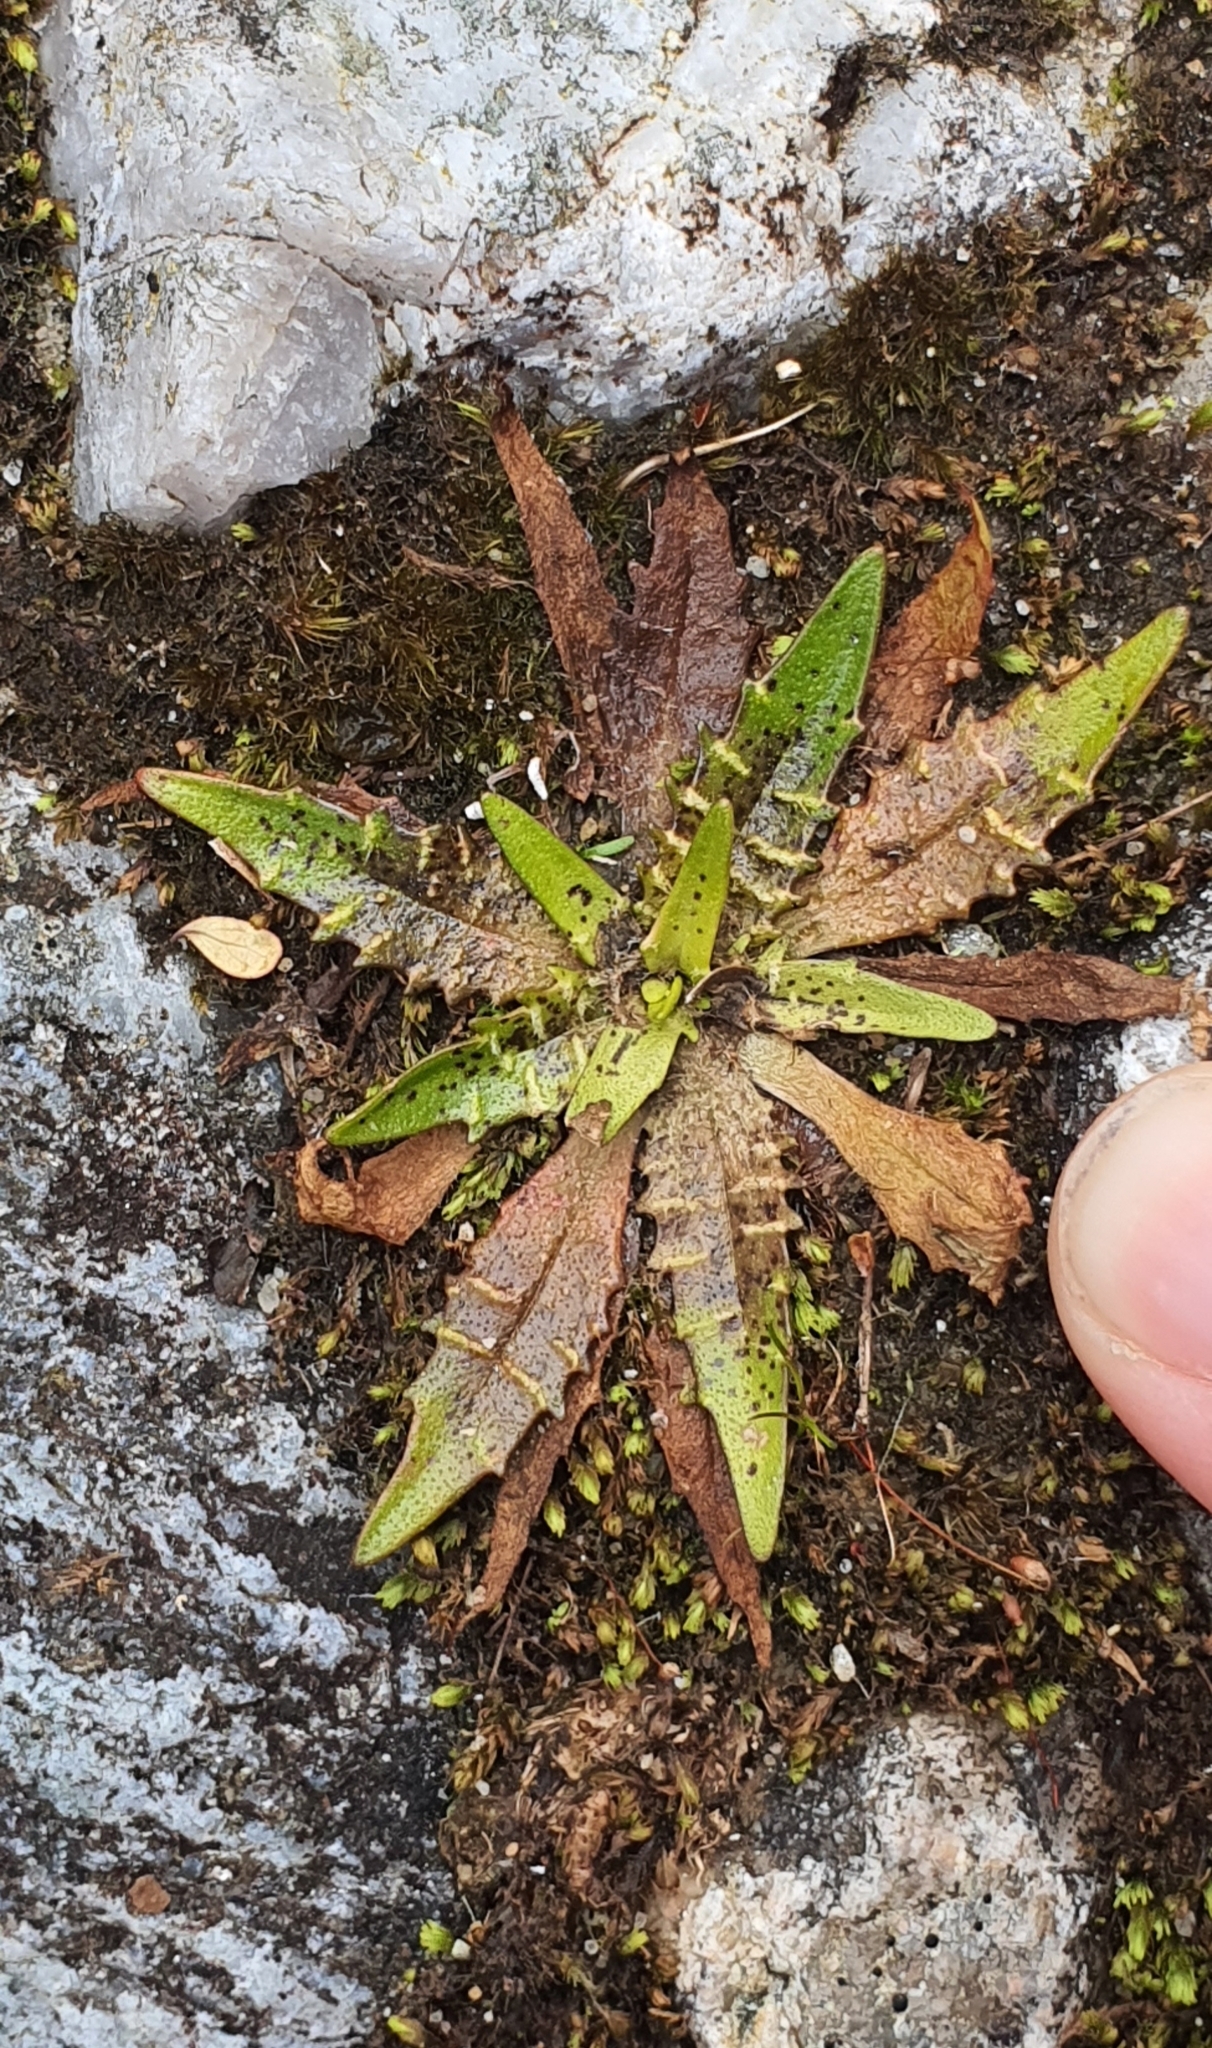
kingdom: Plantae
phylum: Tracheophyta
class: Magnoliopsida
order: Lamiales
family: Plantaginaceae
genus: Plantago
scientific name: Plantago triandra
